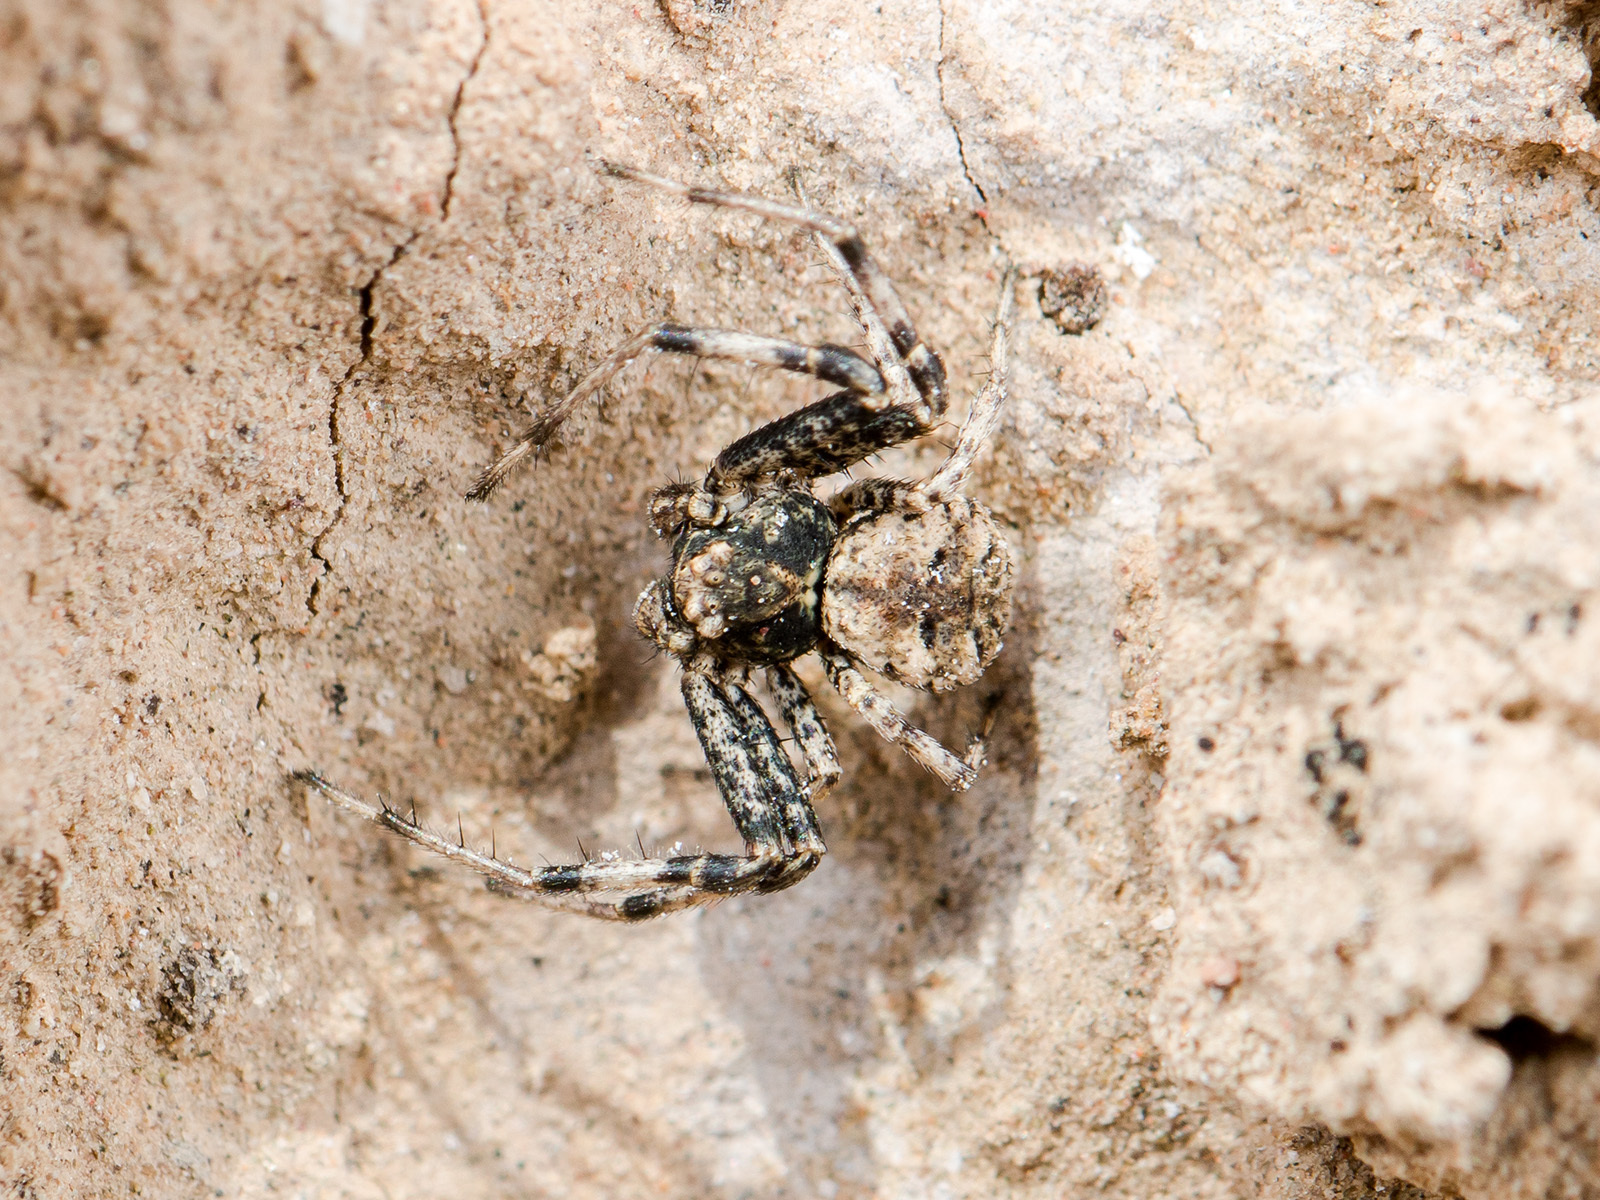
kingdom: Animalia
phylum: Arthropoda
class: Arachnida
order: Araneae
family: Thomisidae
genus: Ozyptila
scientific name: Ozyptila tuberosa
